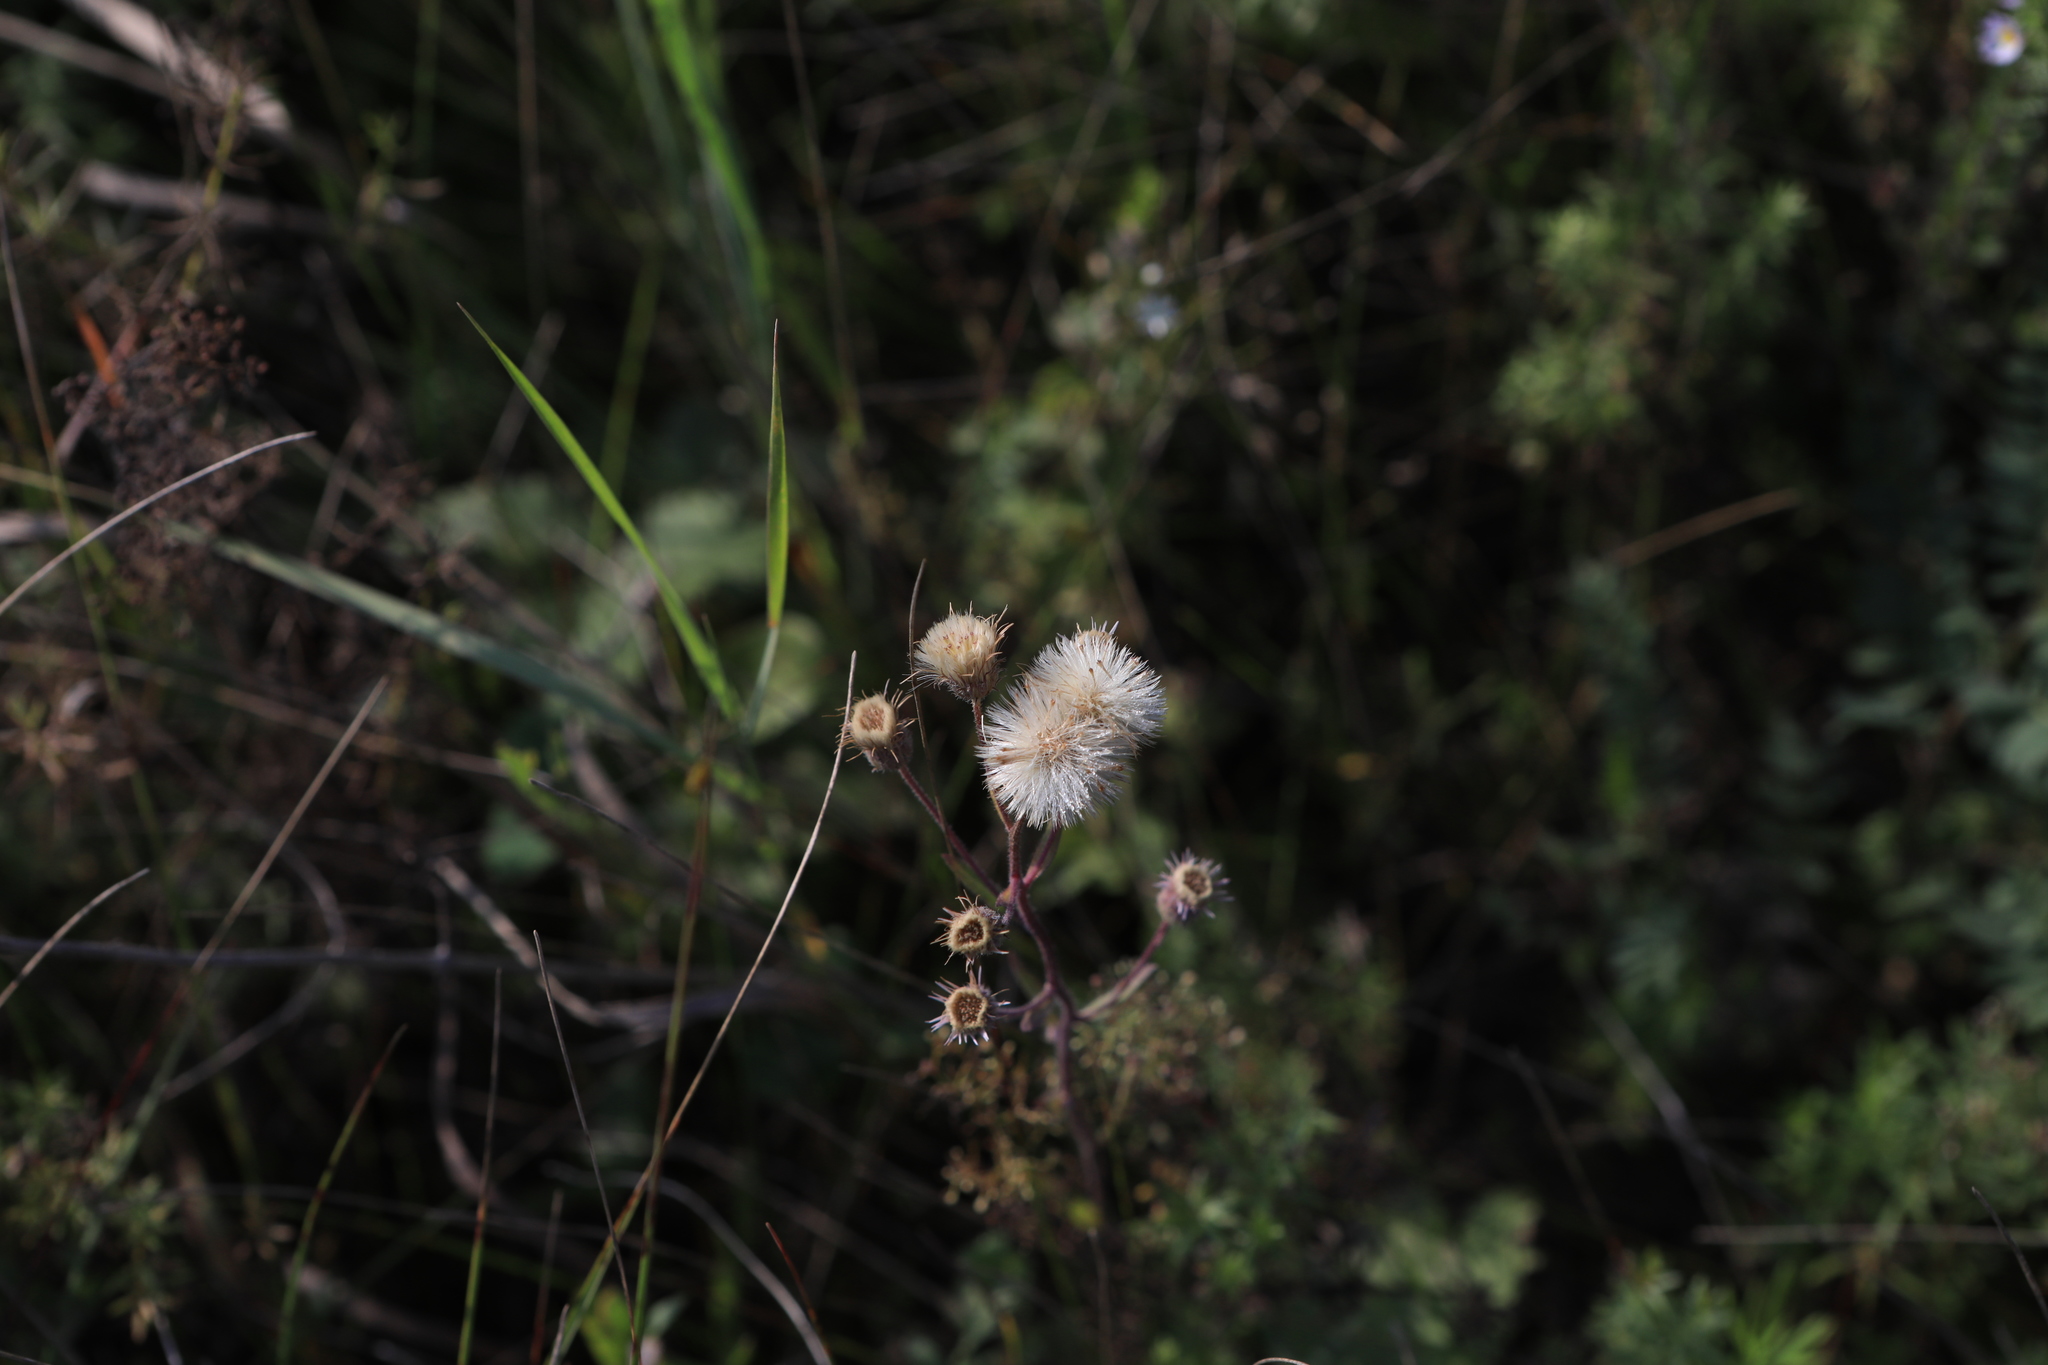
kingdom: Plantae
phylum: Tracheophyta
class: Magnoliopsida
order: Asterales
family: Asteraceae
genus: Erigeron
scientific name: Erigeron acris
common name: Blue fleabane
